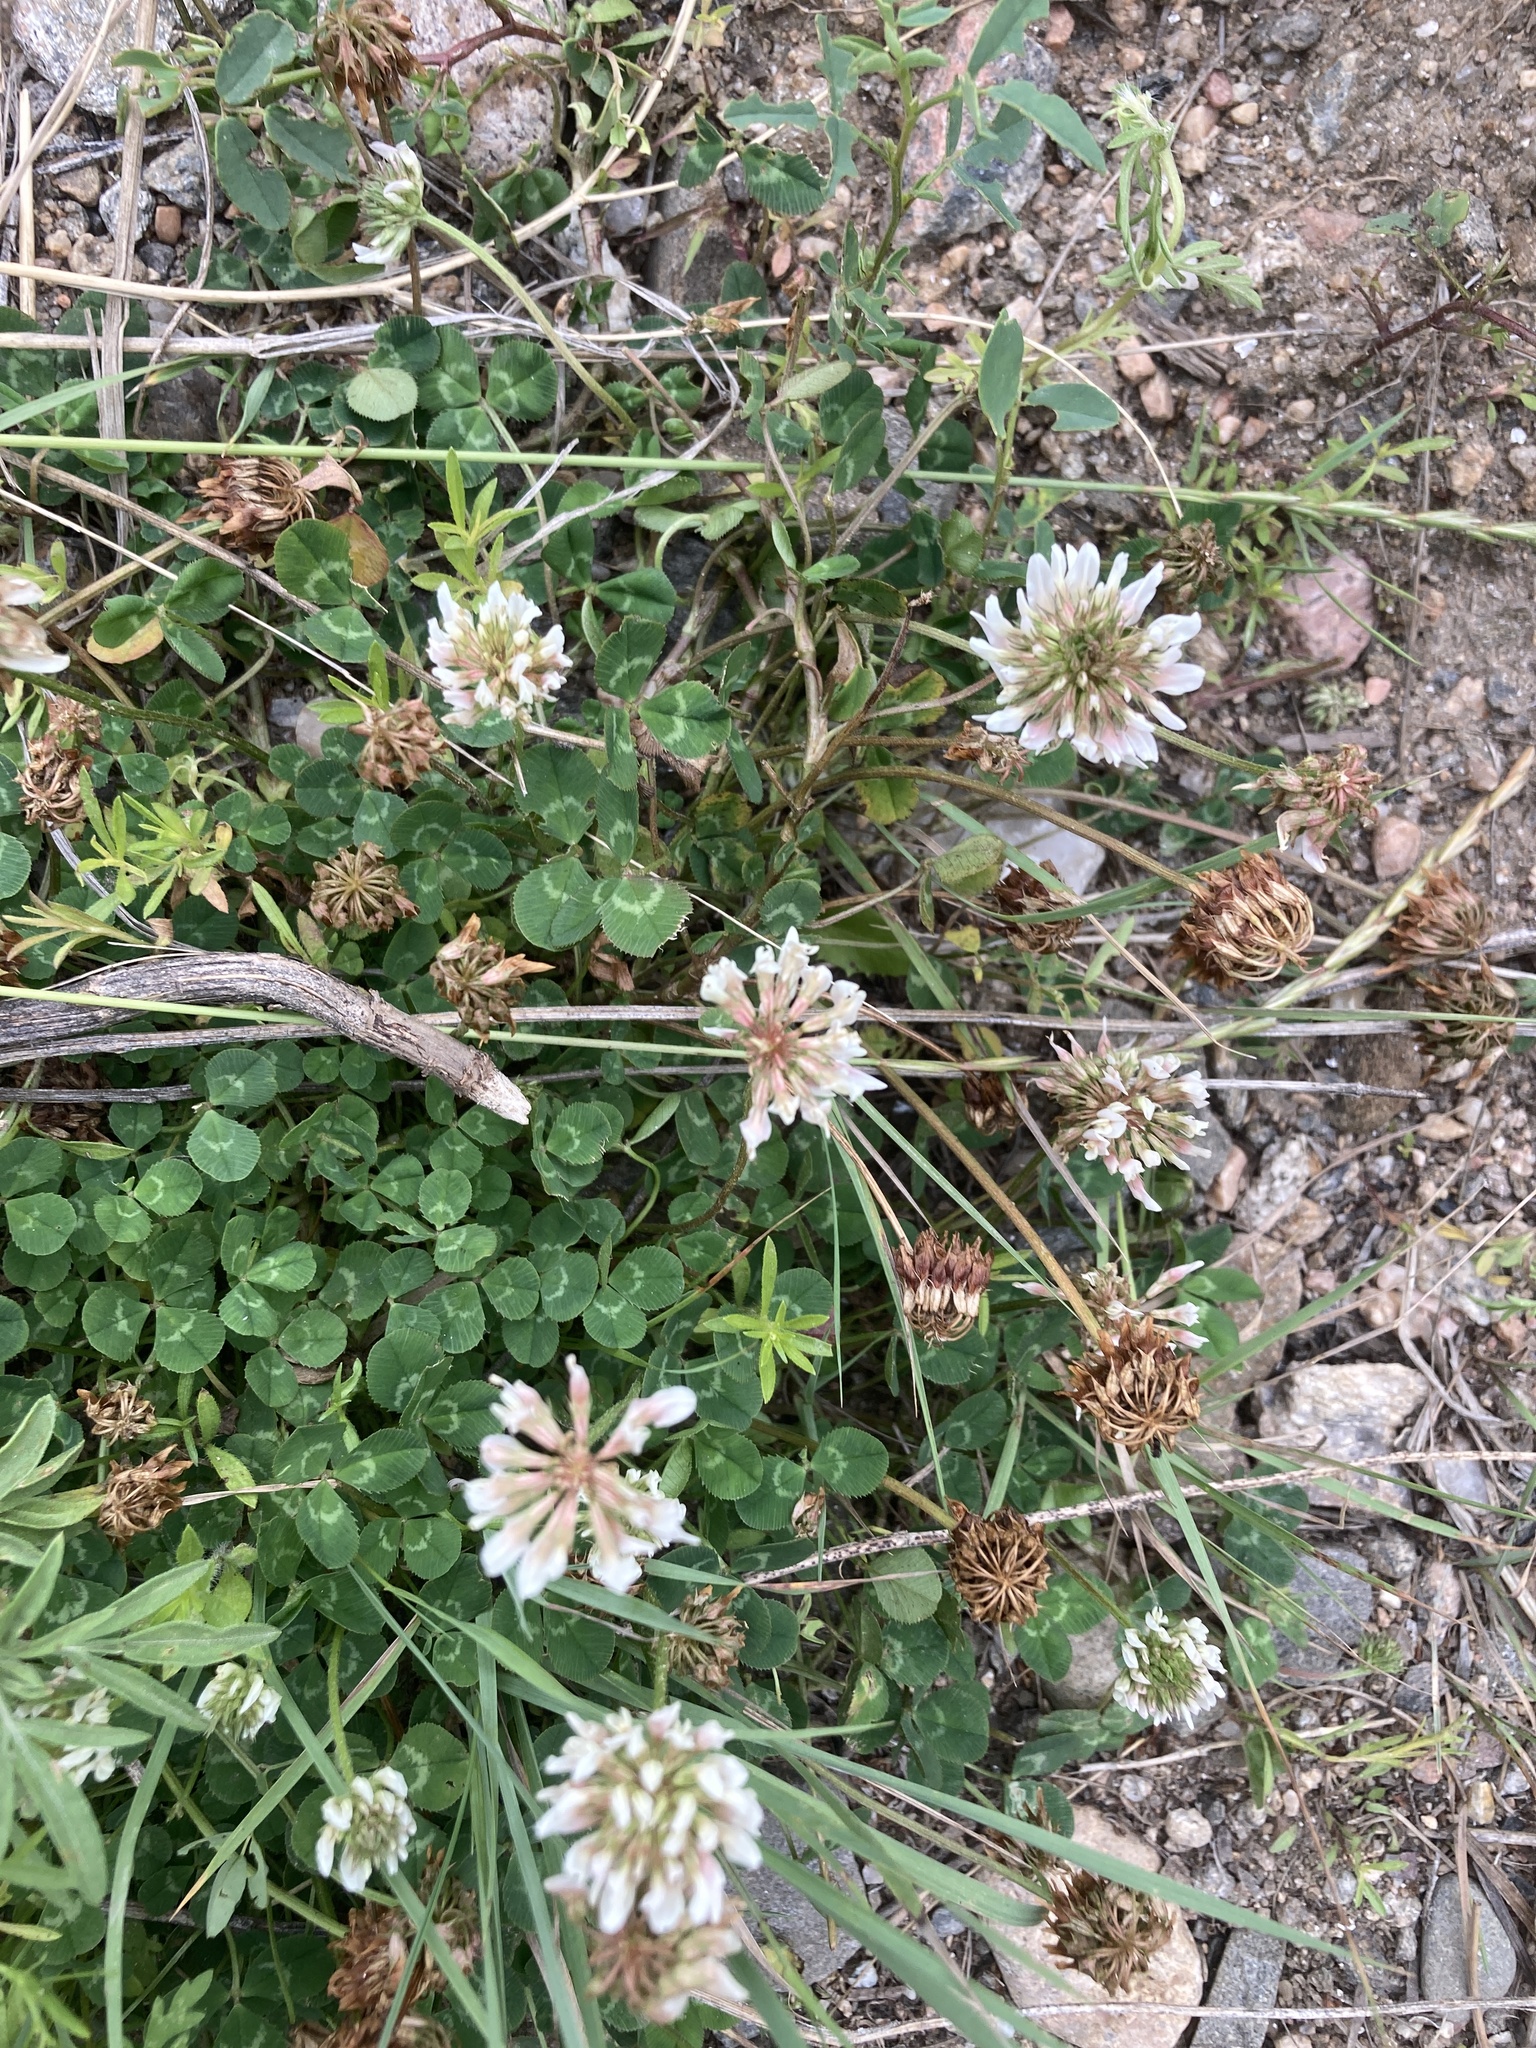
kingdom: Plantae
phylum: Tracheophyta
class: Magnoliopsida
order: Fabales
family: Fabaceae
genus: Trifolium
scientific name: Trifolium repens
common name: White clover
